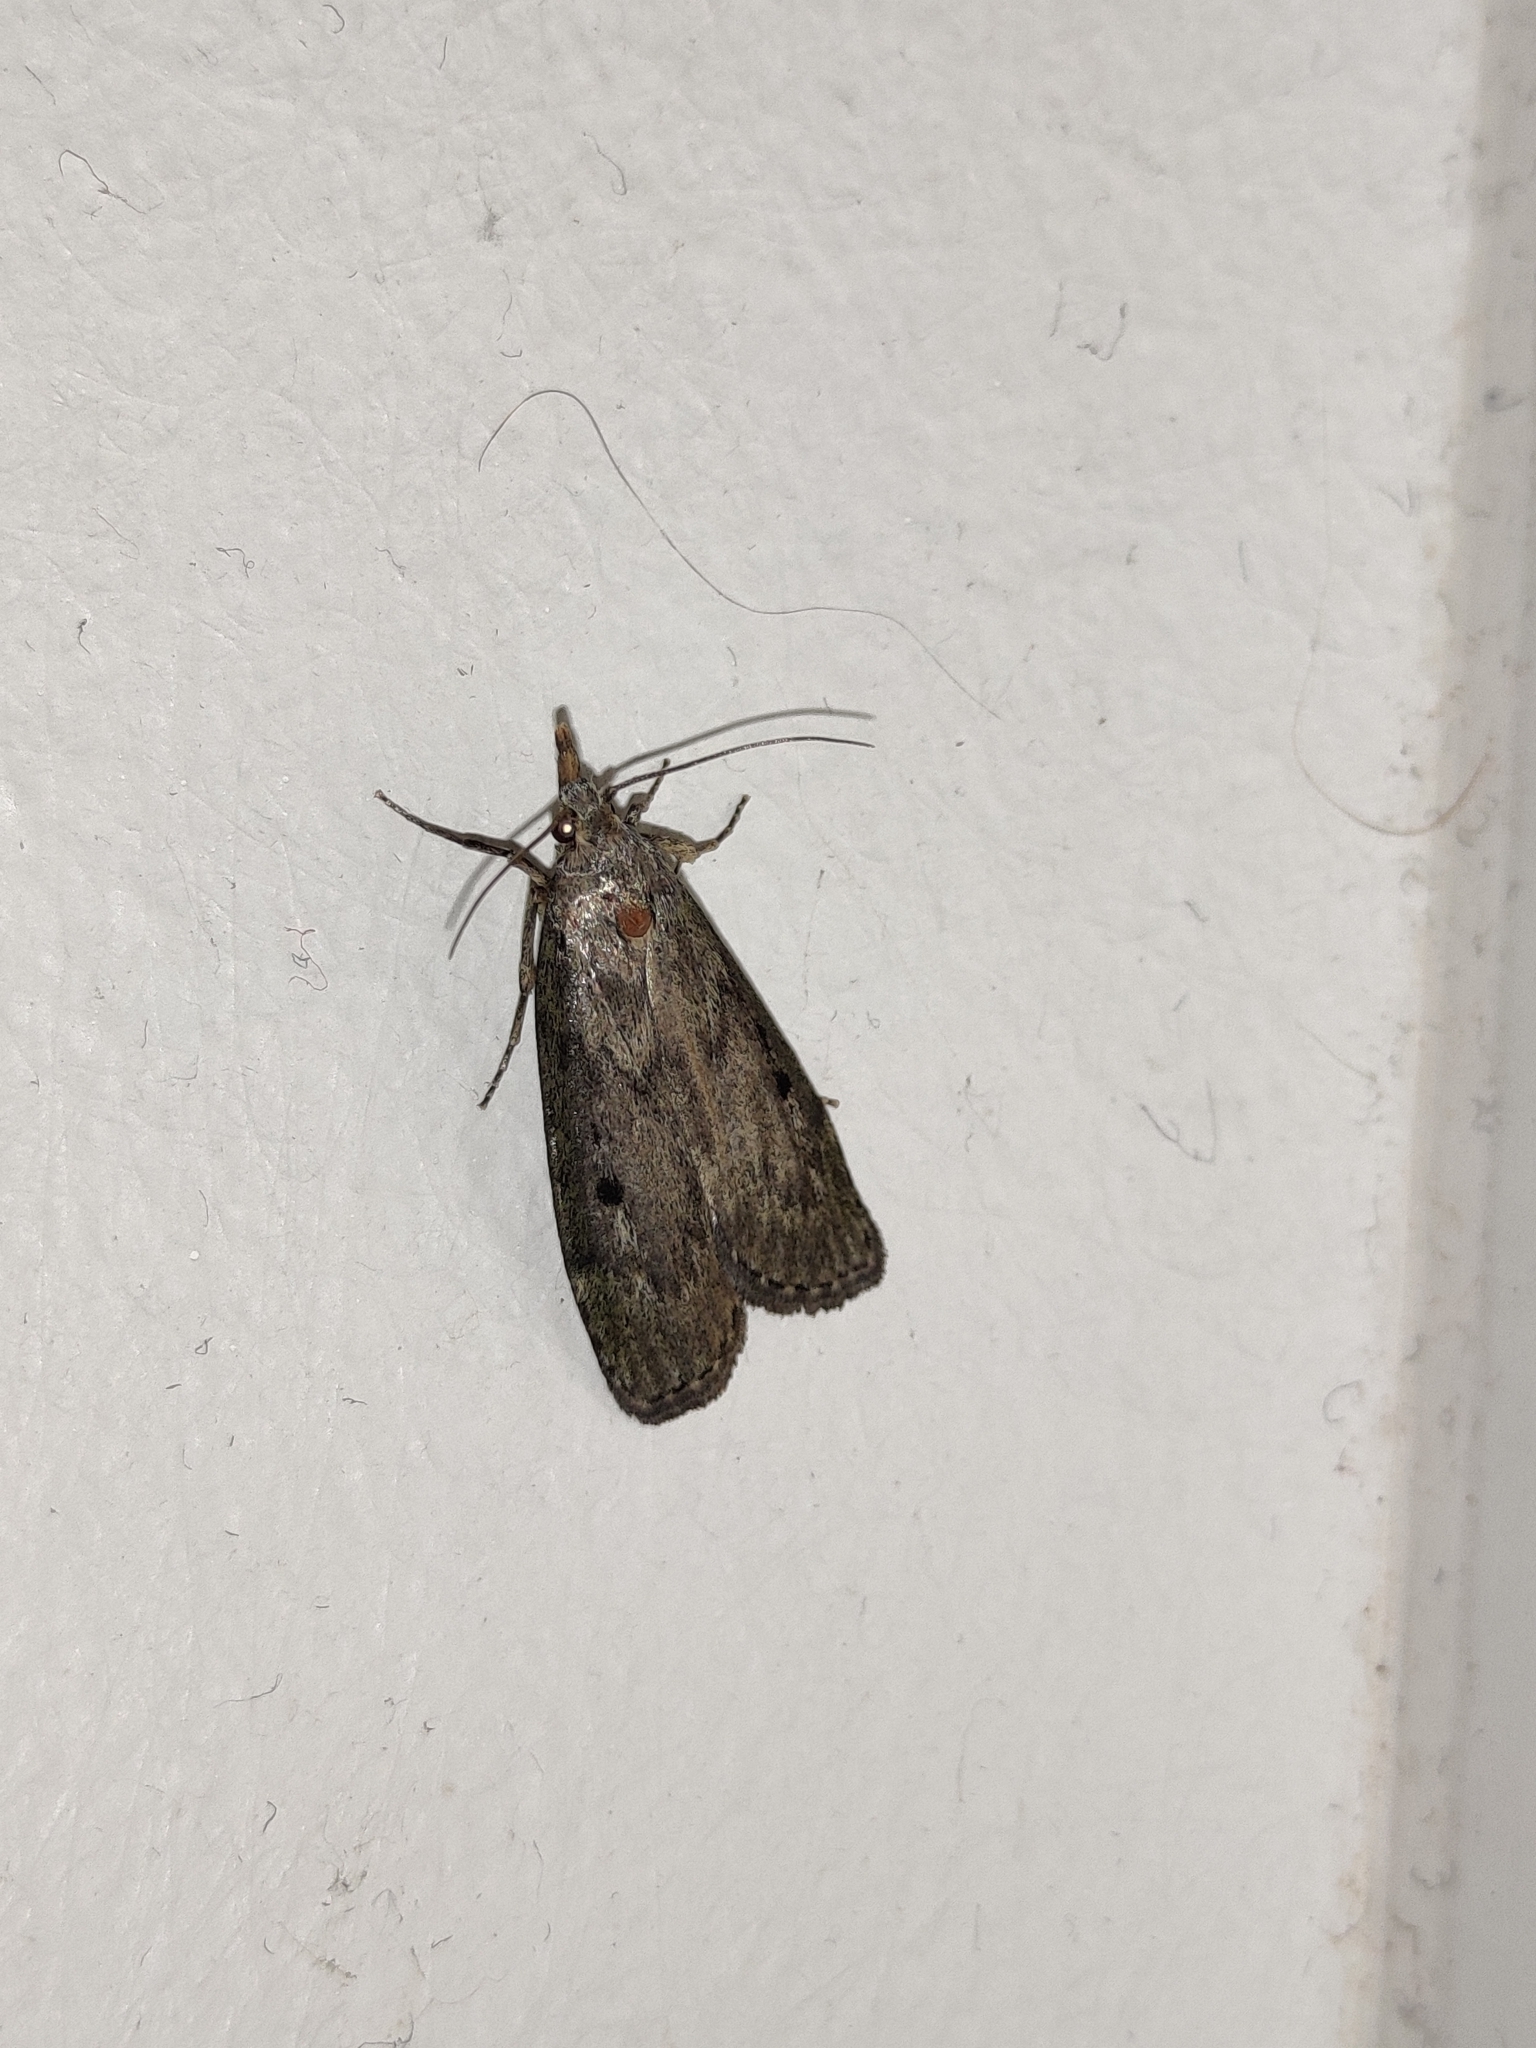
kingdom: Animalia
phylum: Arthropoda
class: Insecta
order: Lepidoptera
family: Pyralidae
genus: Aphomia
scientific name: Aphomia sociella
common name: Bee moth
